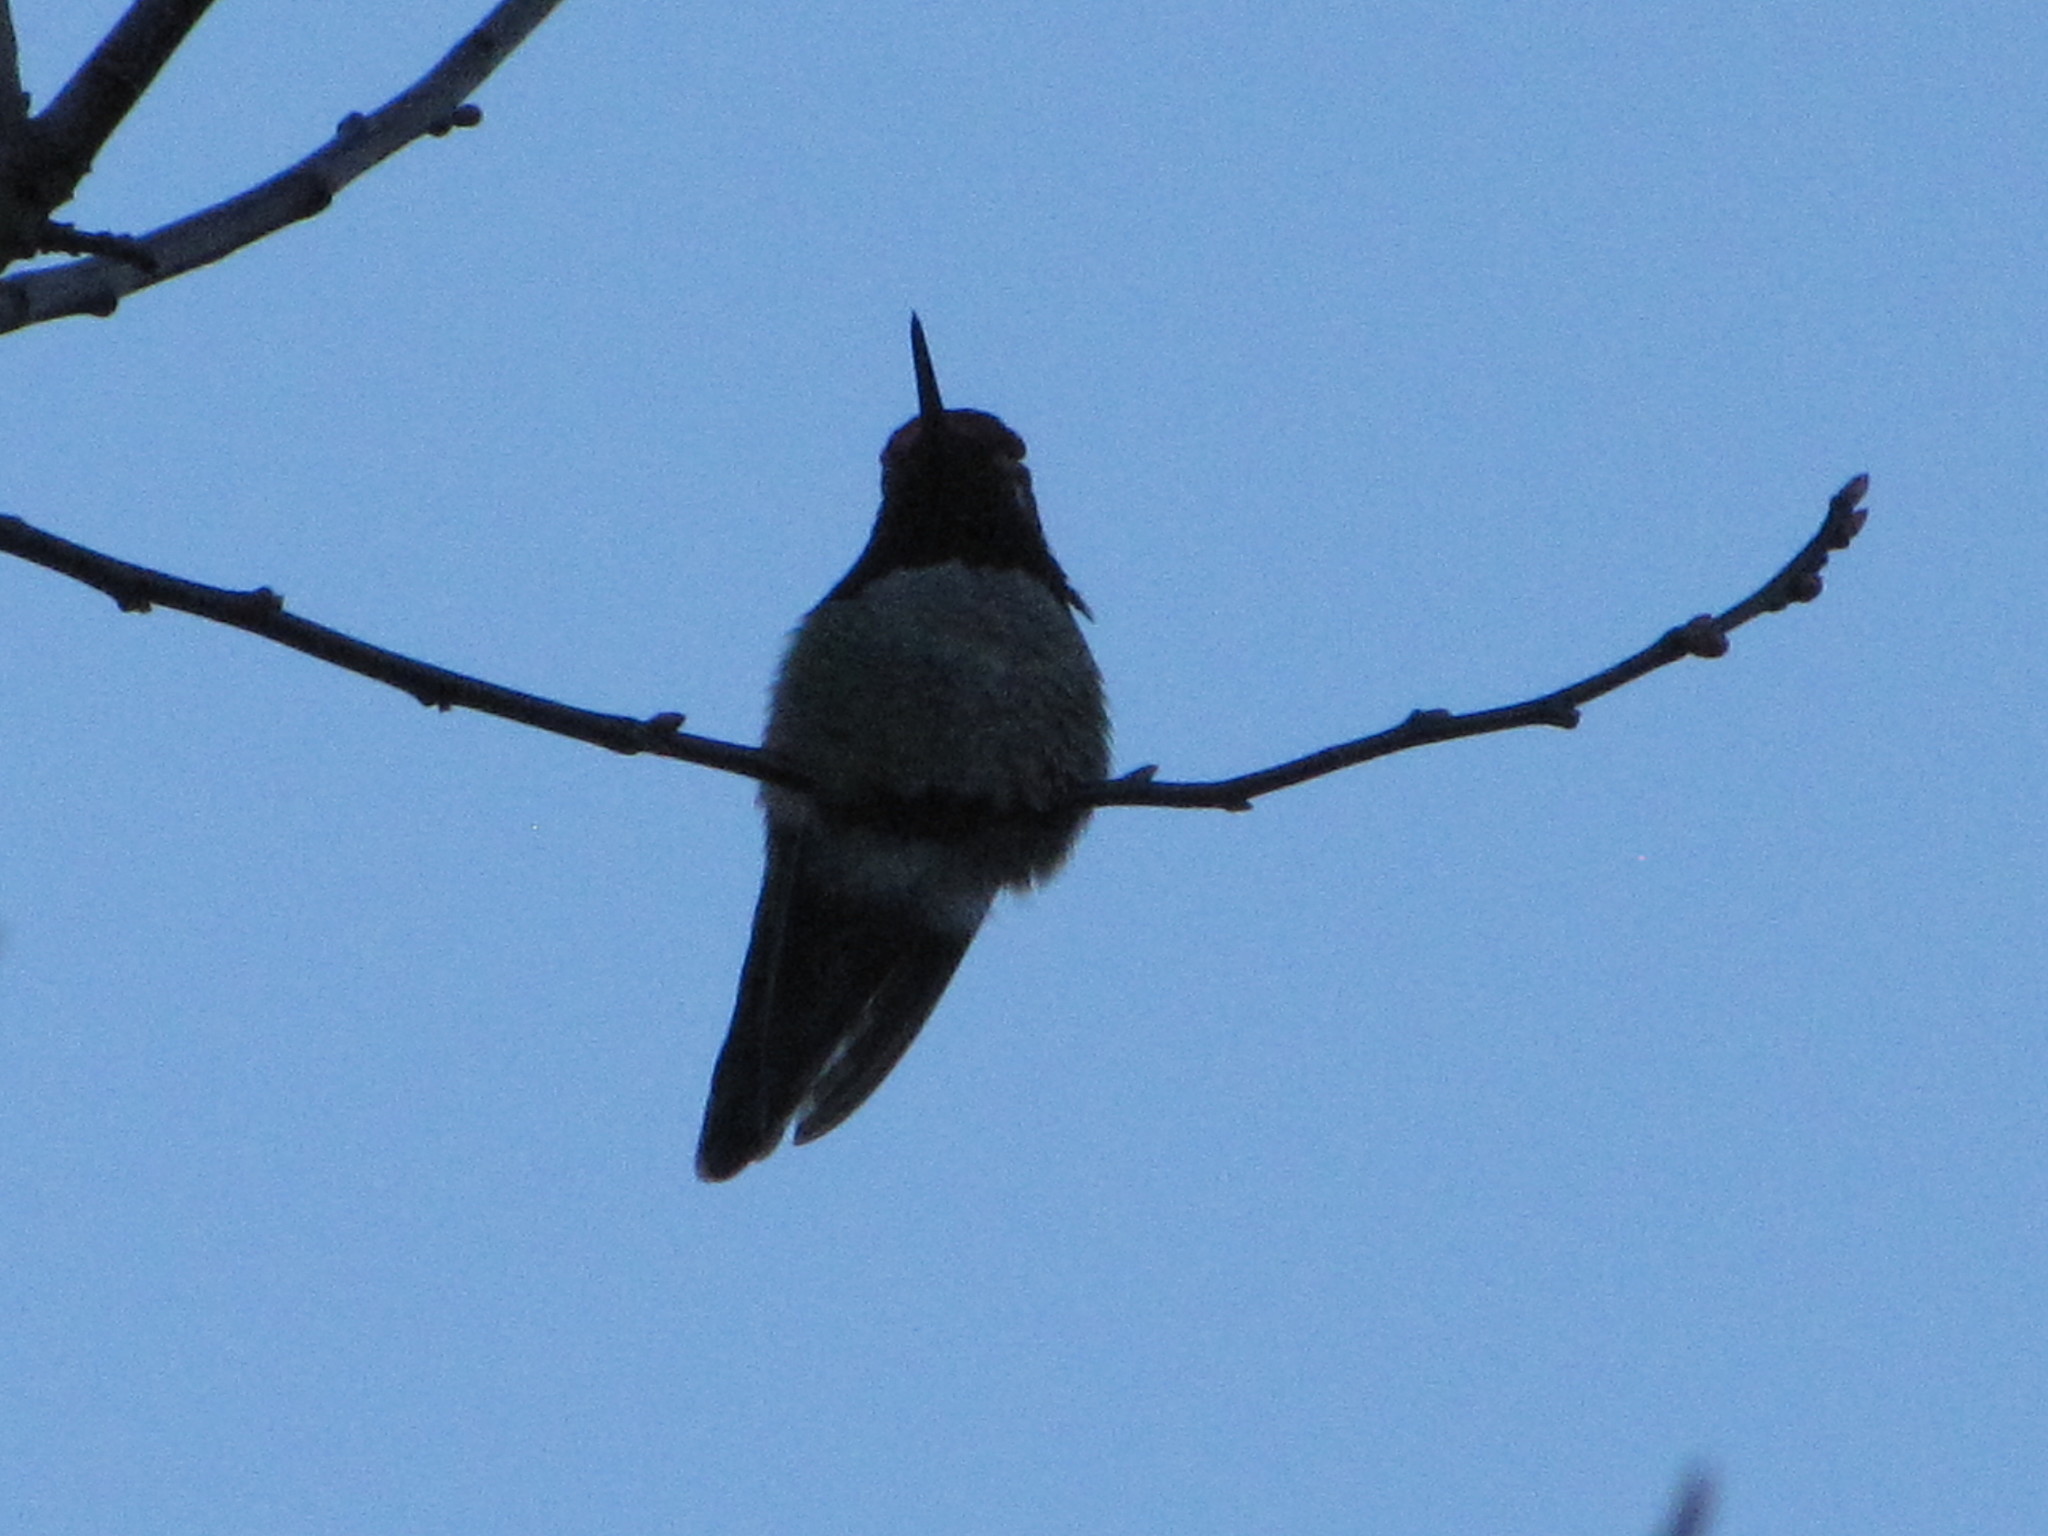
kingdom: Animalia
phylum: Chordata
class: Aves
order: Apodiformes
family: Trochilidae
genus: Calypte
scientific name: Calypte anna
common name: Anna's hummingbird
